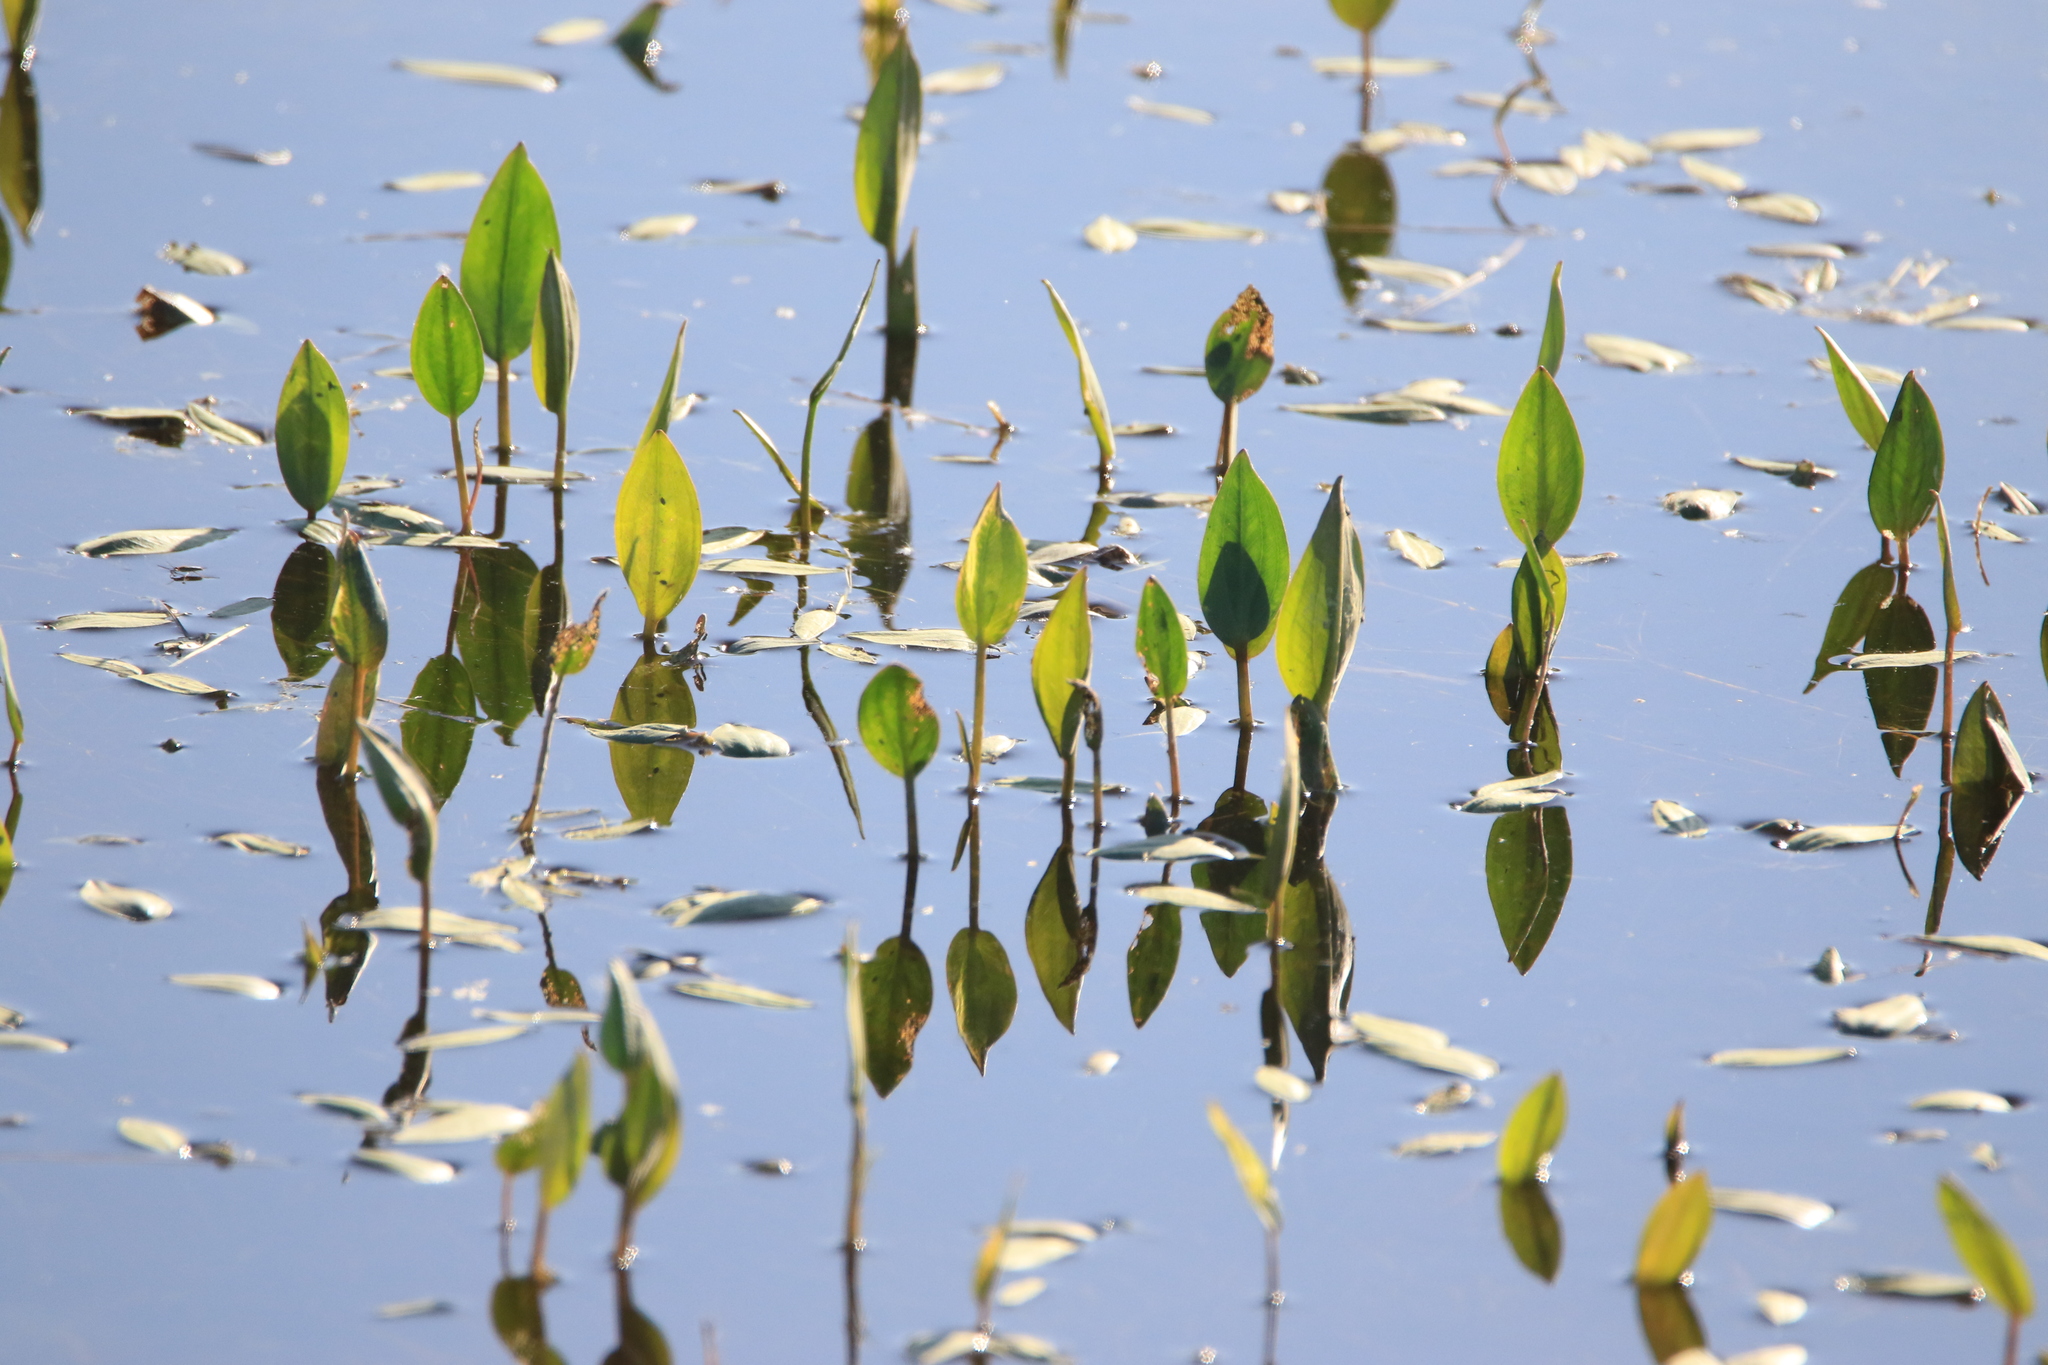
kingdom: Plantae
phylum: Tracheophyta
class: Liliopsida
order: Alismatales
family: Alismataceae
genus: Alisma
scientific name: Alisma plantago-aquatica
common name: Water-plantain
